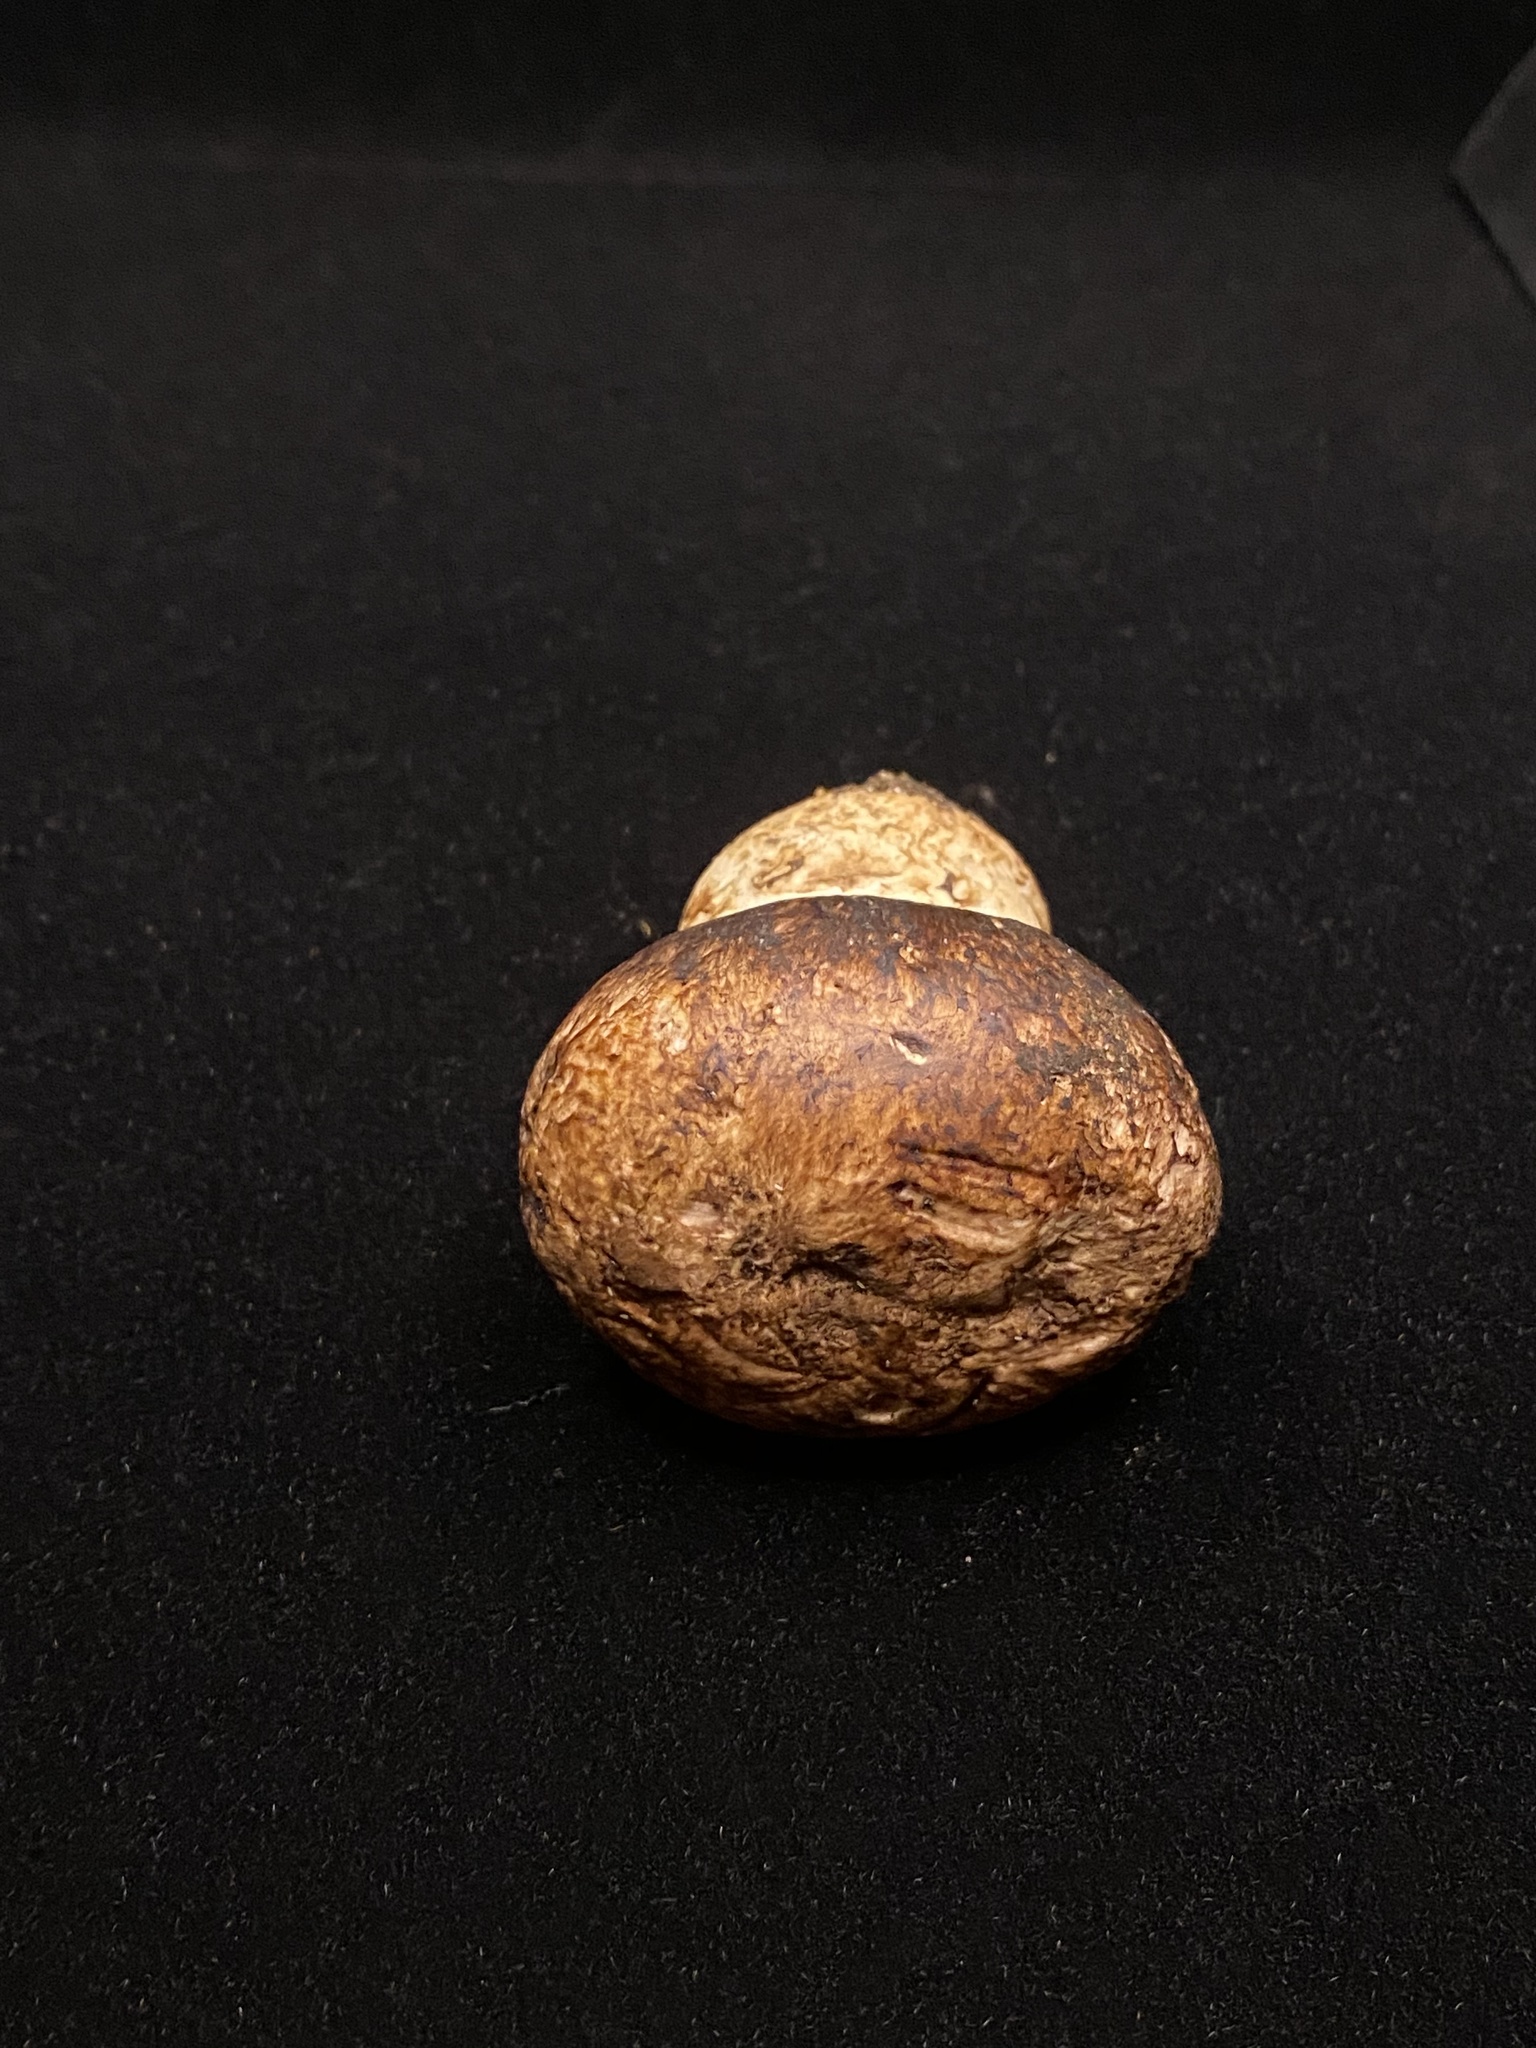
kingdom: Fungi
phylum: Basidiomycota
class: Agaricomycetes
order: Agaricales
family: Agaricaceae
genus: Agaricus
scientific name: Agaricus pattersoniae
